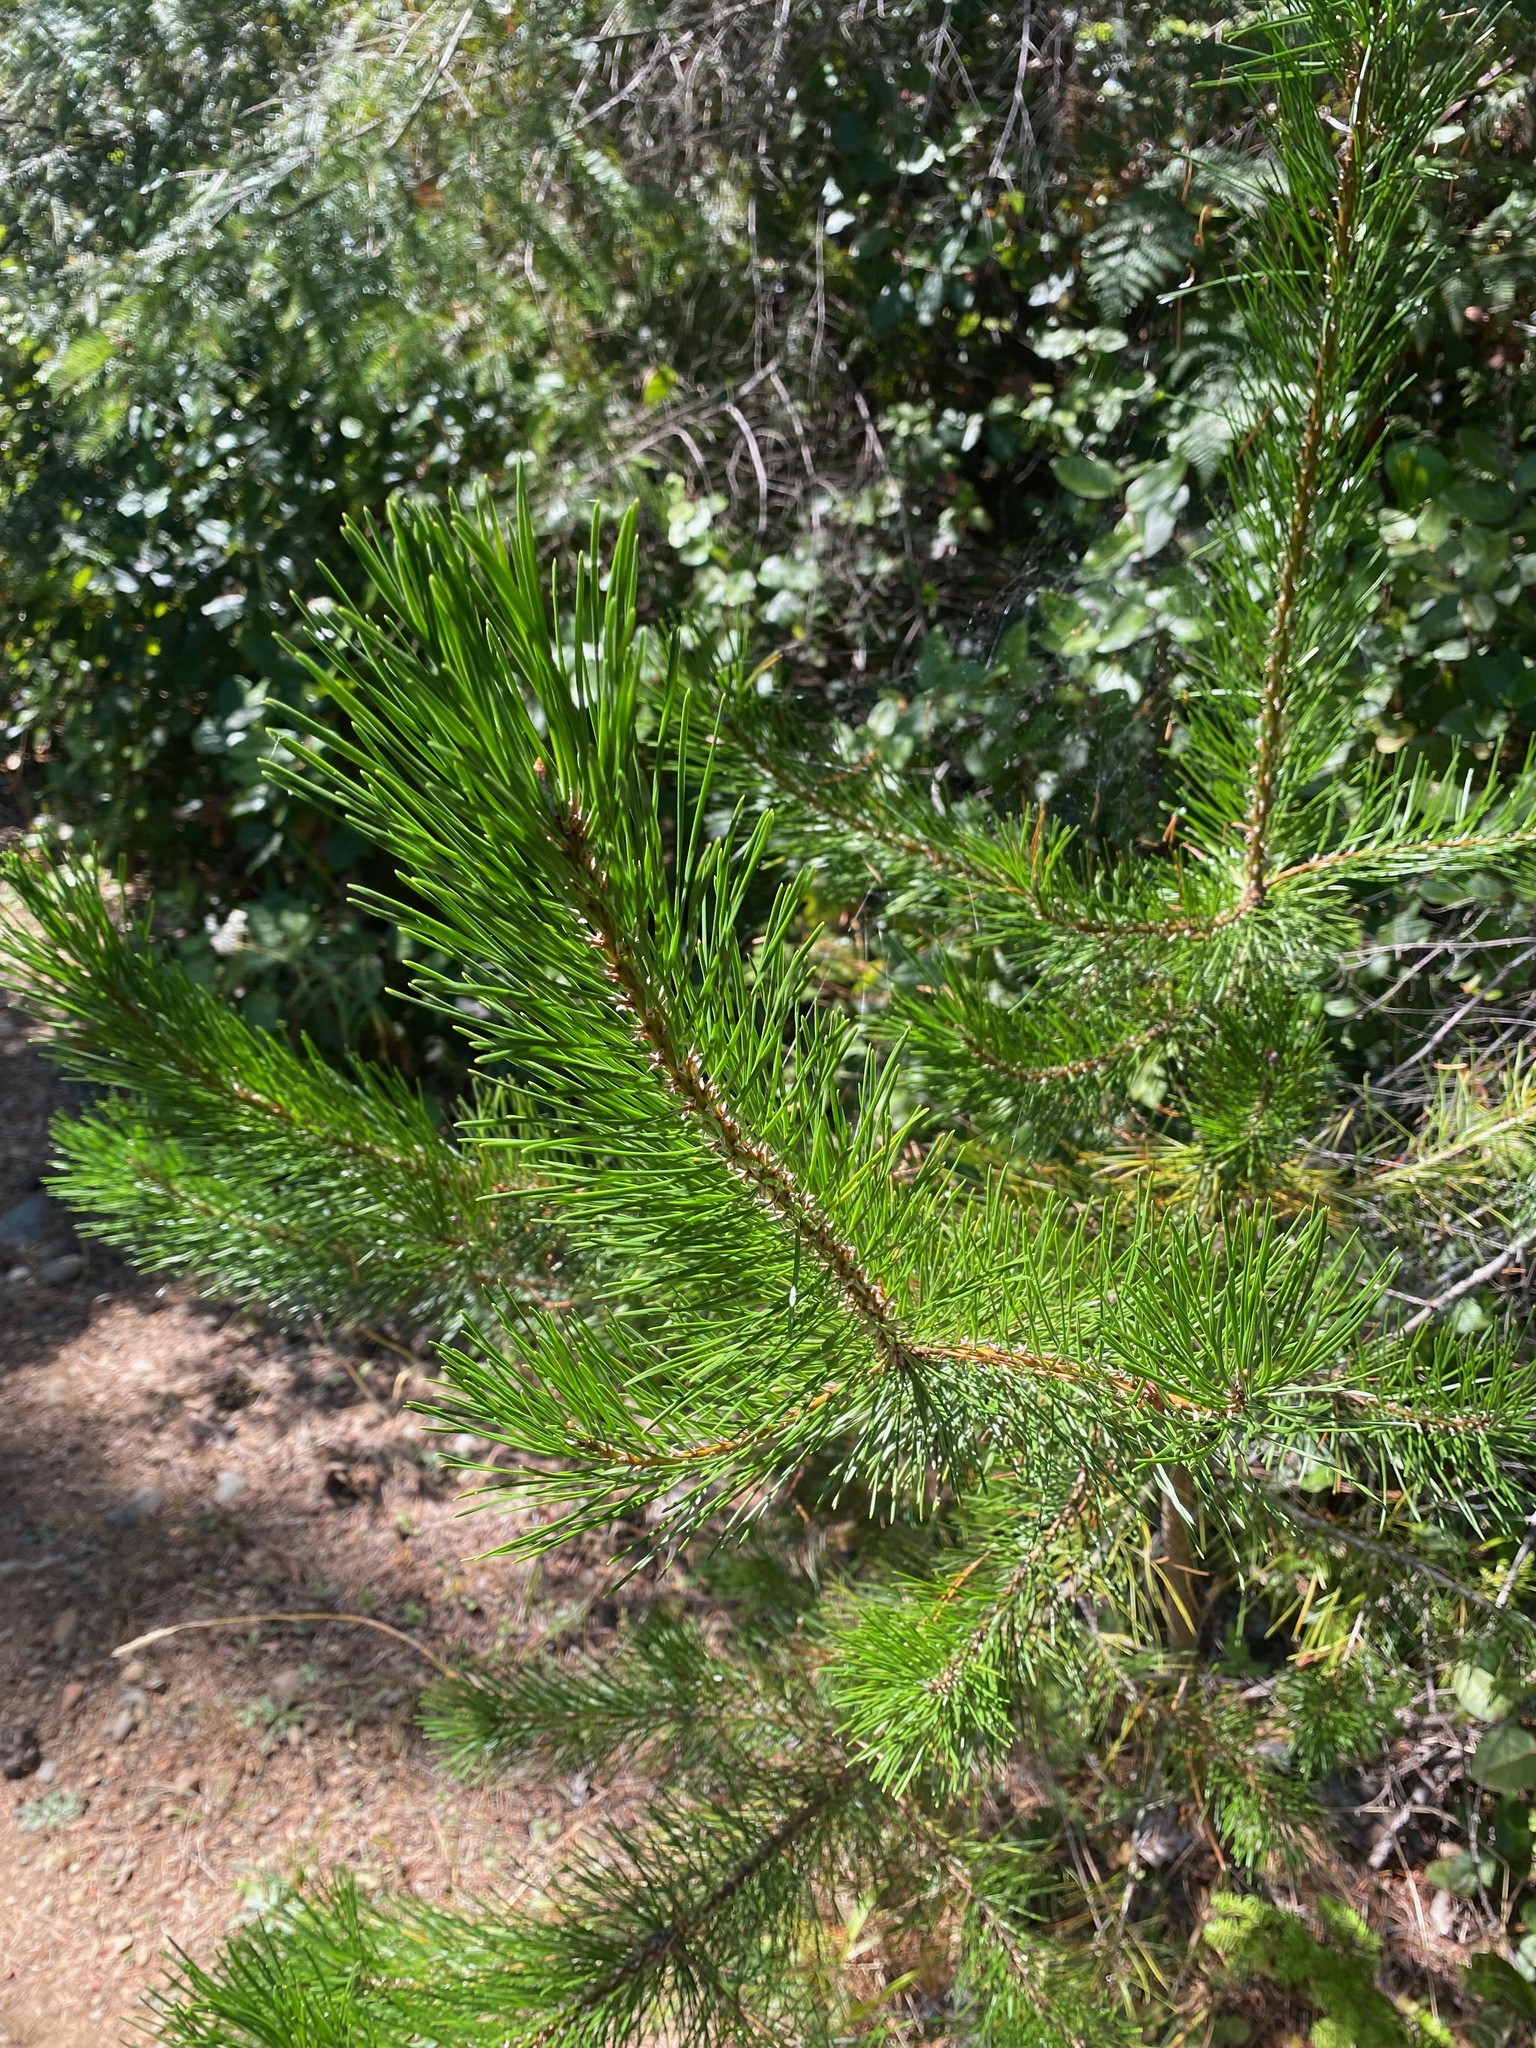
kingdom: Plantae
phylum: Tracheophyta
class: Pinopsida
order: Pinales
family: Pinaceae
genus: Pinus
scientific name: Pinus contorta
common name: Lodgepole pine
